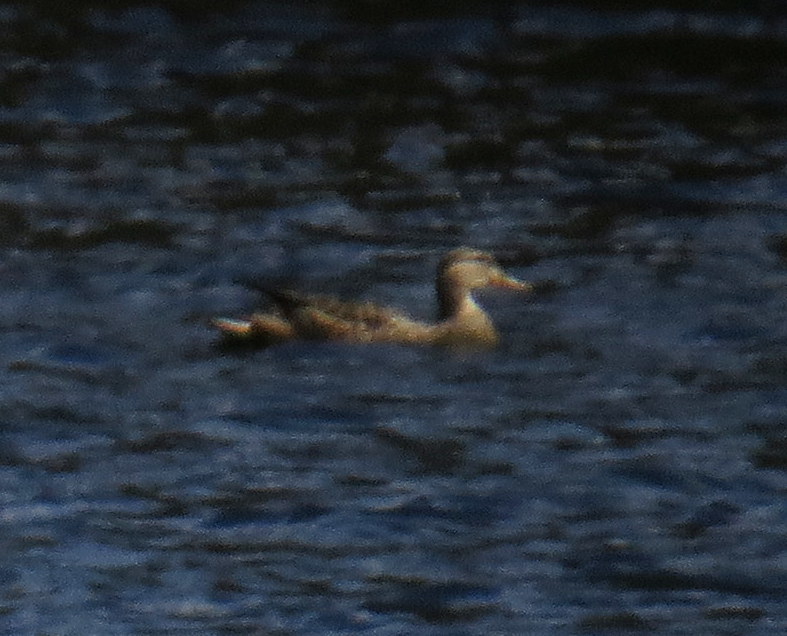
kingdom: Animalia
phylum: Chordata
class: Aves
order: Anseriformes
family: Anatidae
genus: Anas
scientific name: Anas platyrhynchos
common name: Mallard
